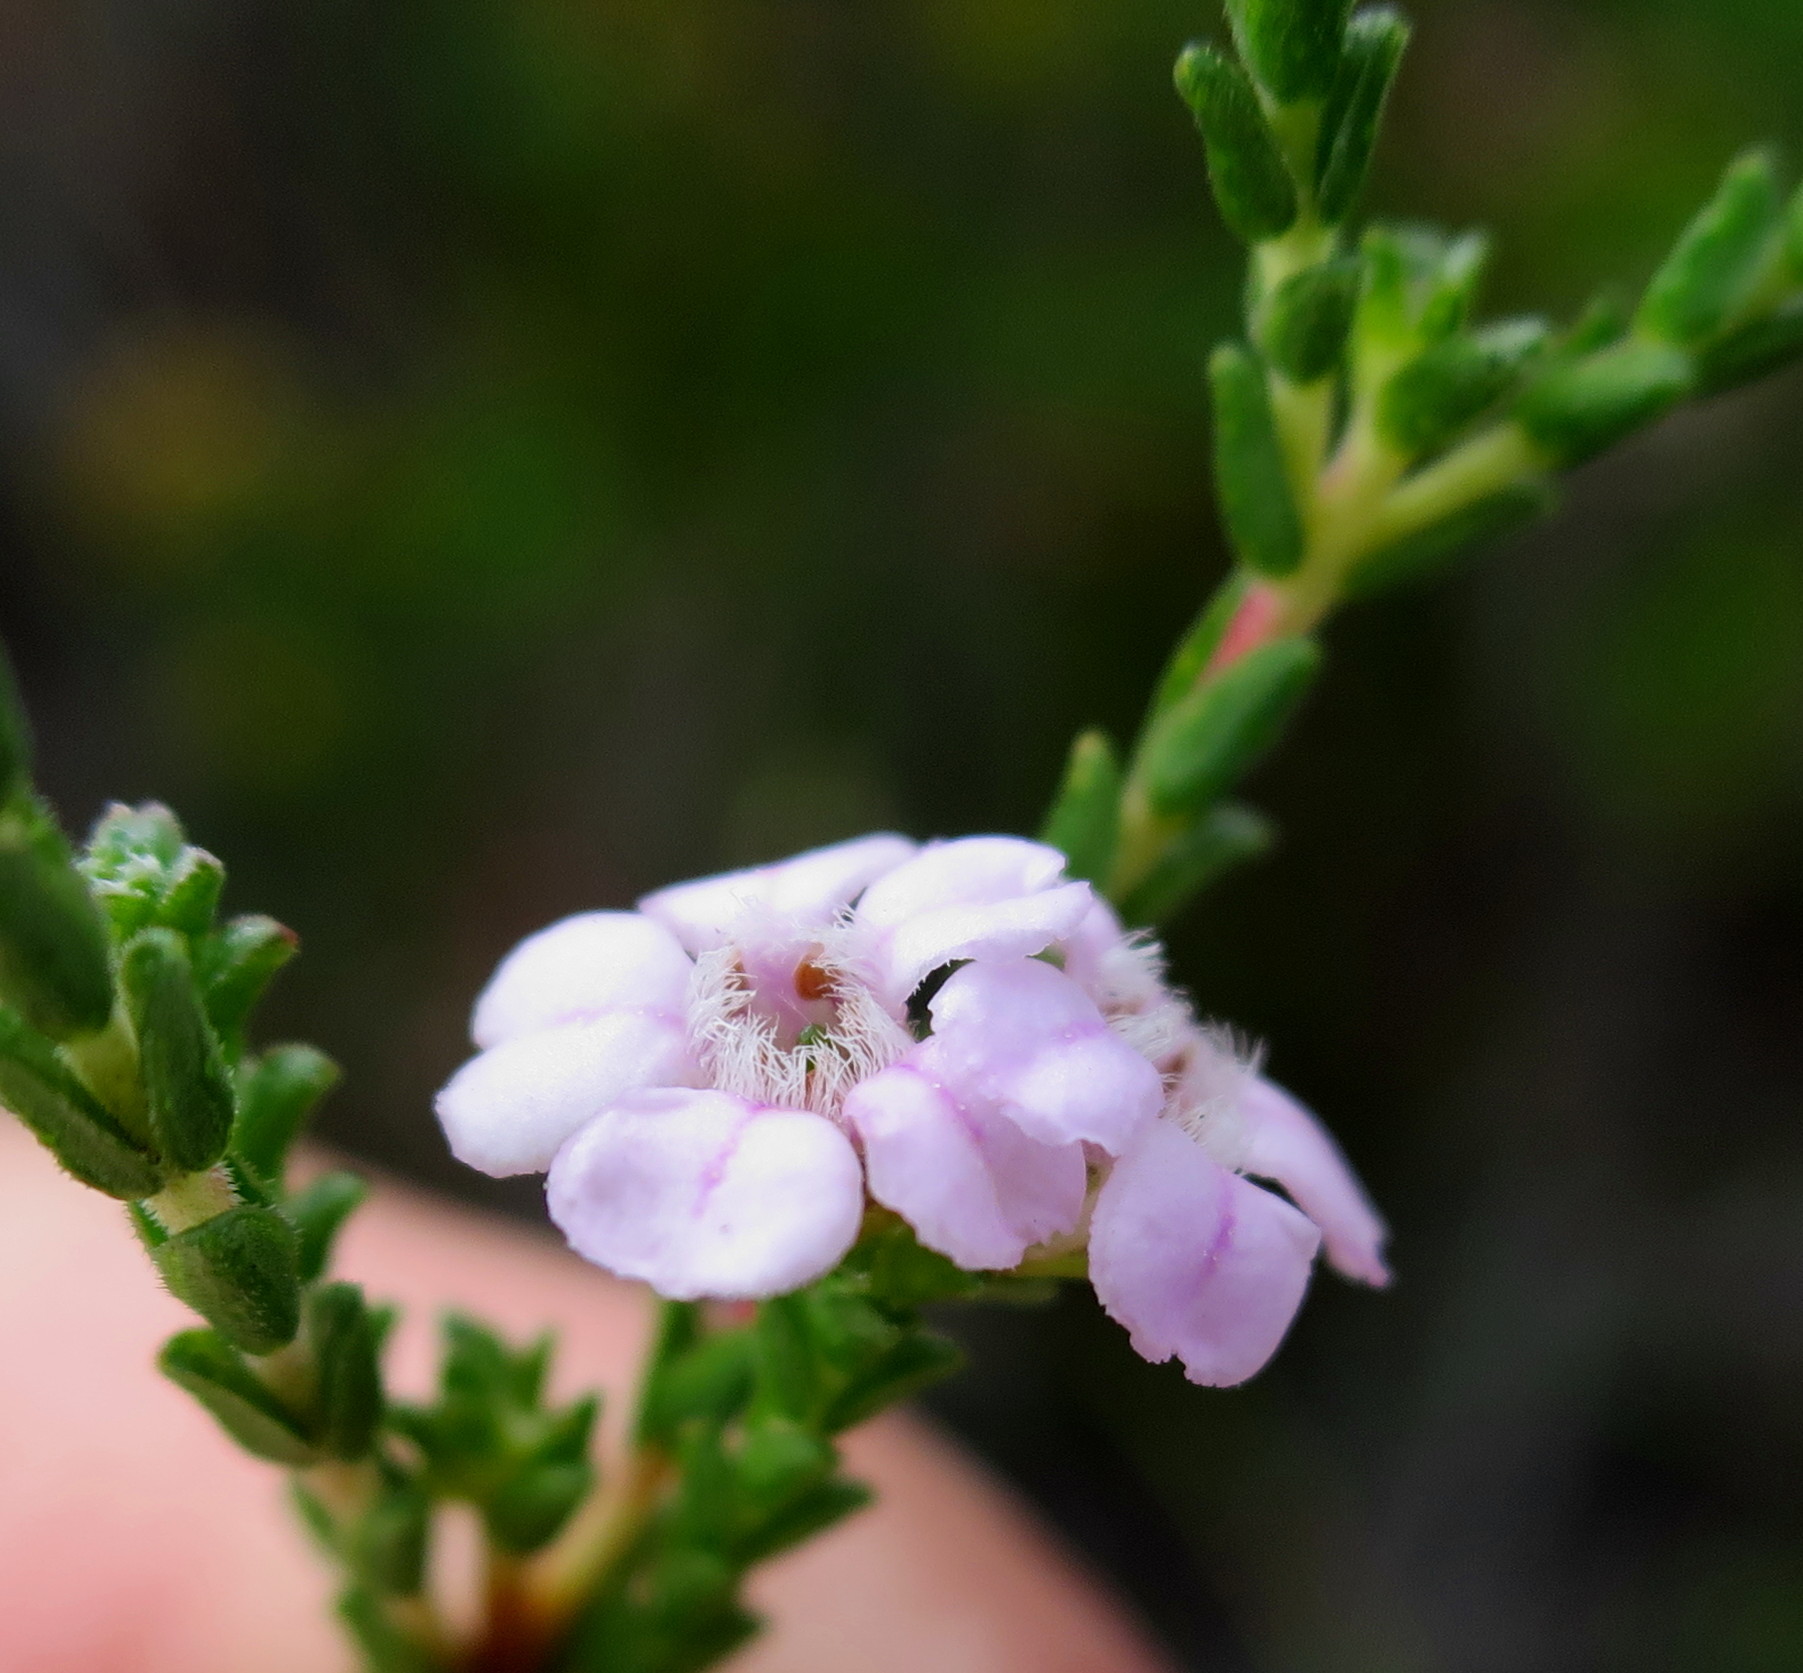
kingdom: Plantae
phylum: Tracheophyta
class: Magnoliopsida
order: Sapindales
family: Rutaceae
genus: Euchaetis
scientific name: Euchaetis albertiniana
